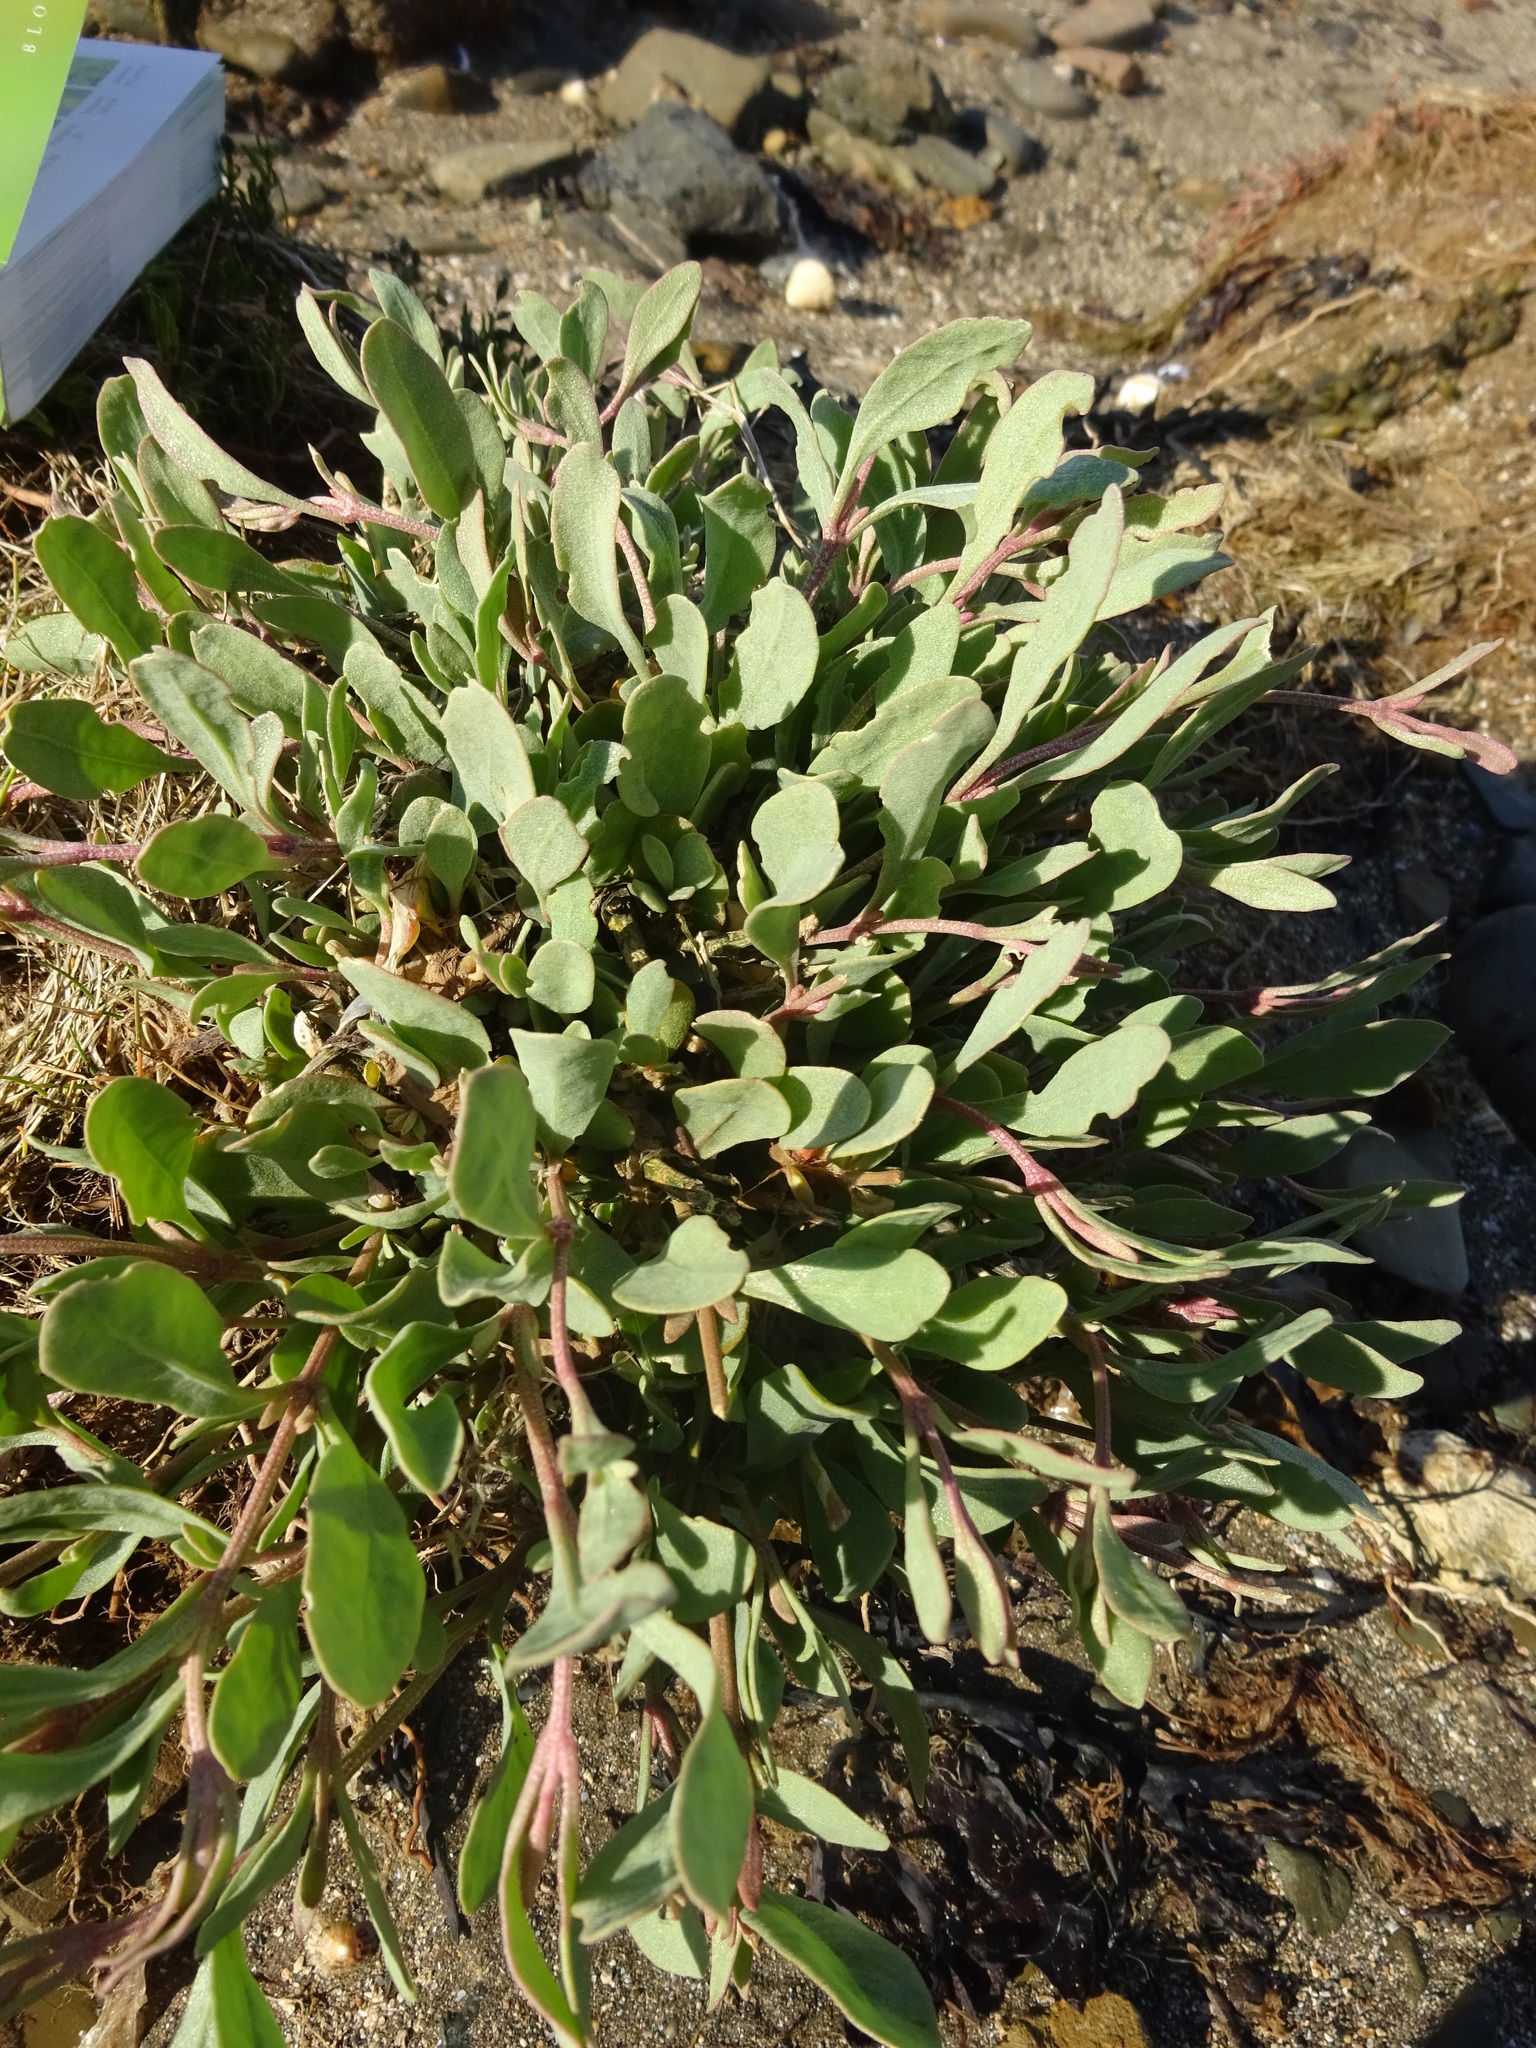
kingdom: Plantae
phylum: Tracheophyta
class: Magnoliopsida
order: Caryophyllales
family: Amaranthaceae
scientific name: Amaranthaceae
